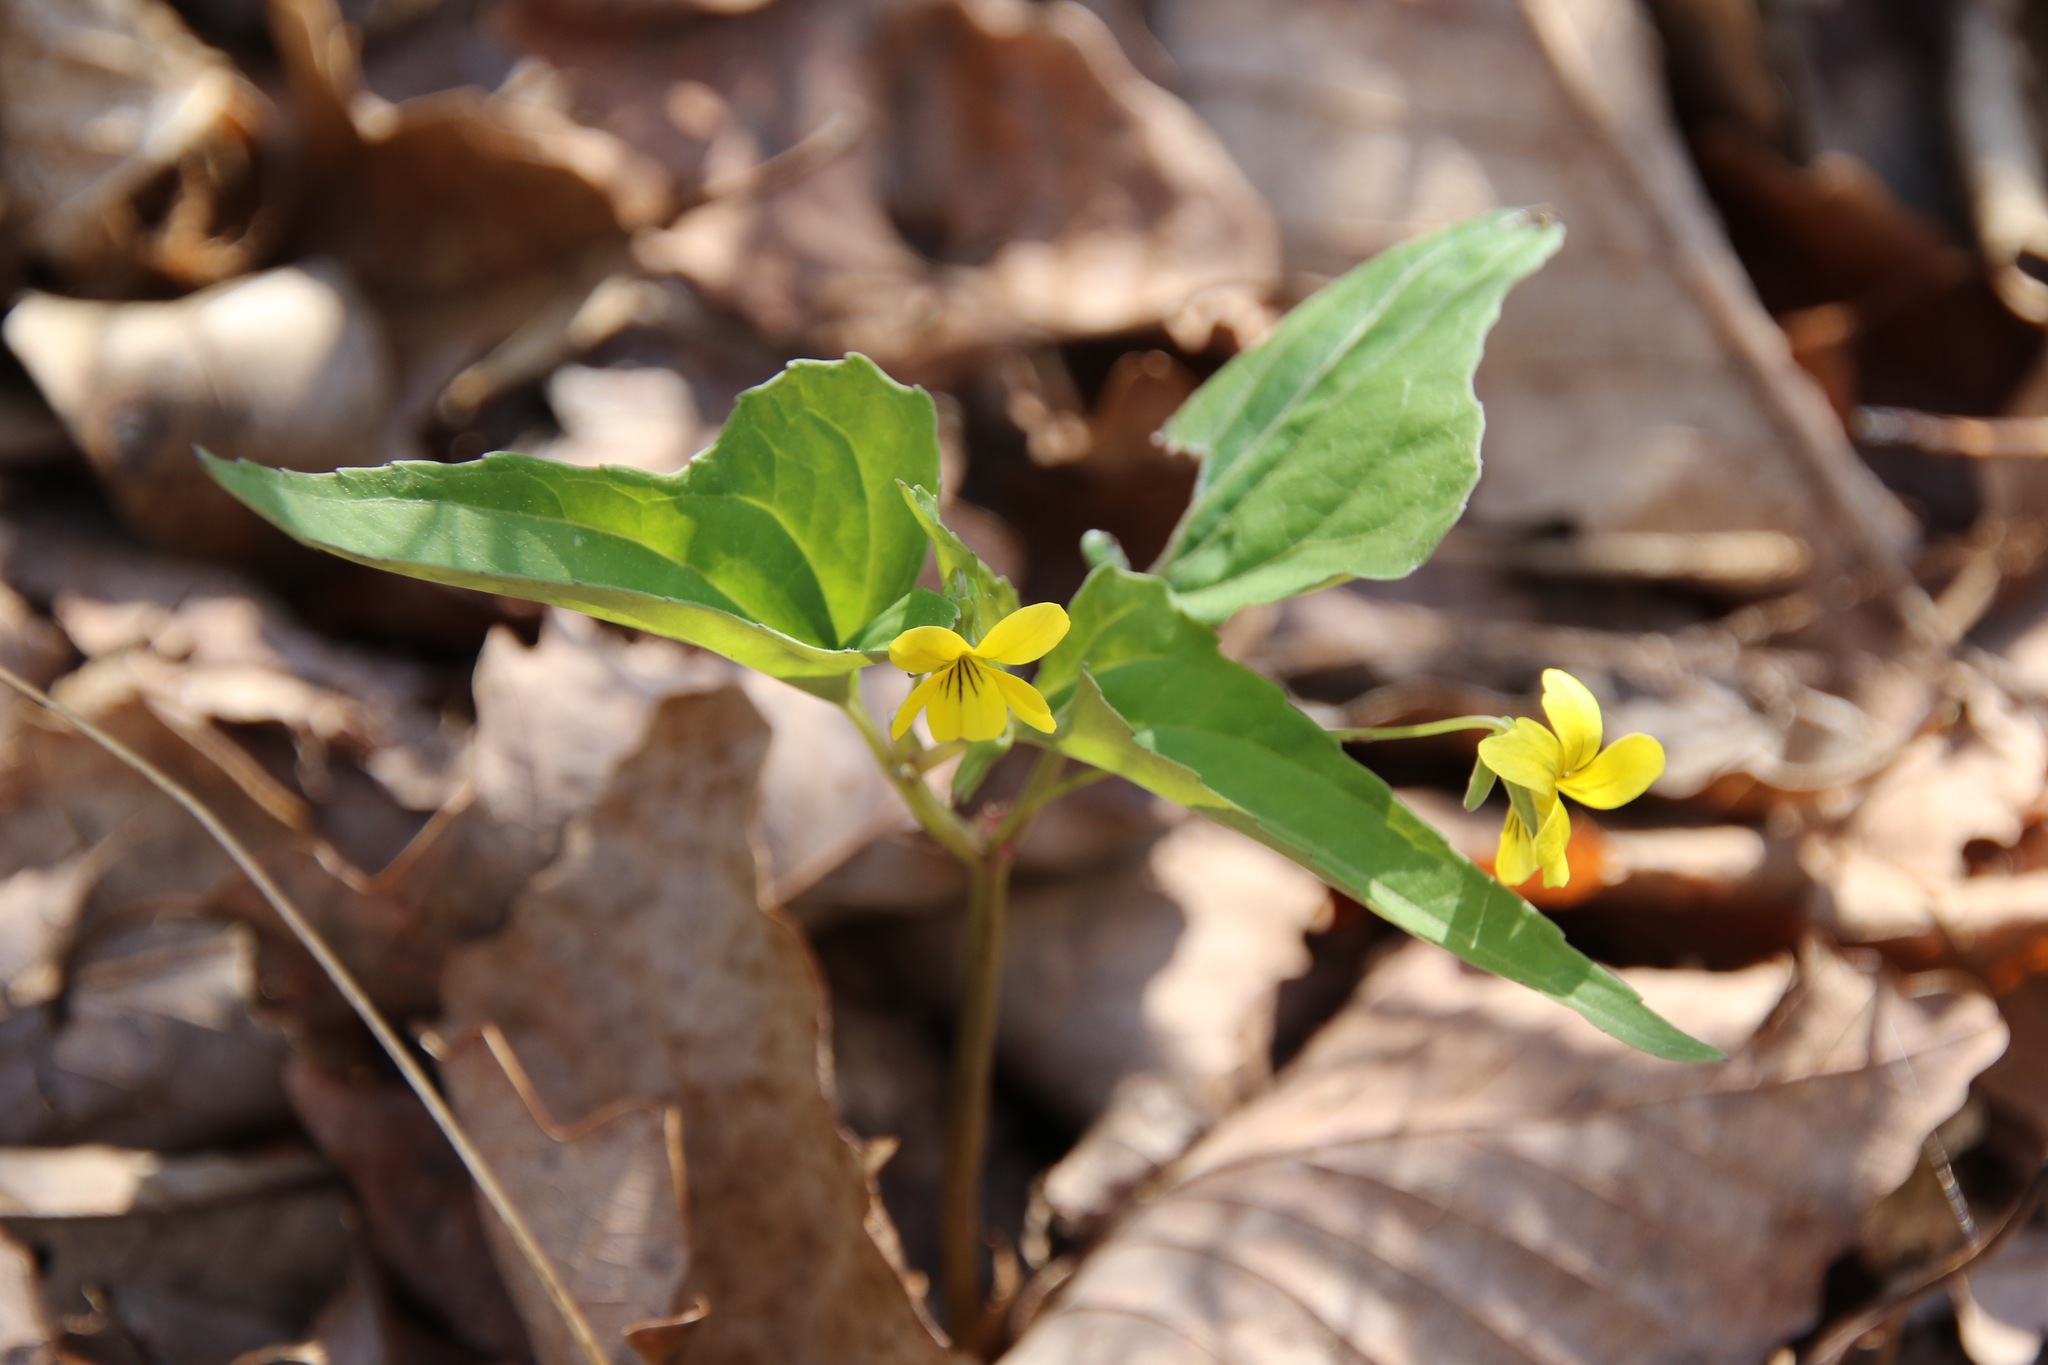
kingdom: Plantae
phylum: Tracheophyta
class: Magnoliopsida
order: Malpighiales
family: Violaceae
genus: Viola
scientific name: Viola hastata
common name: Spear-leaf violet
